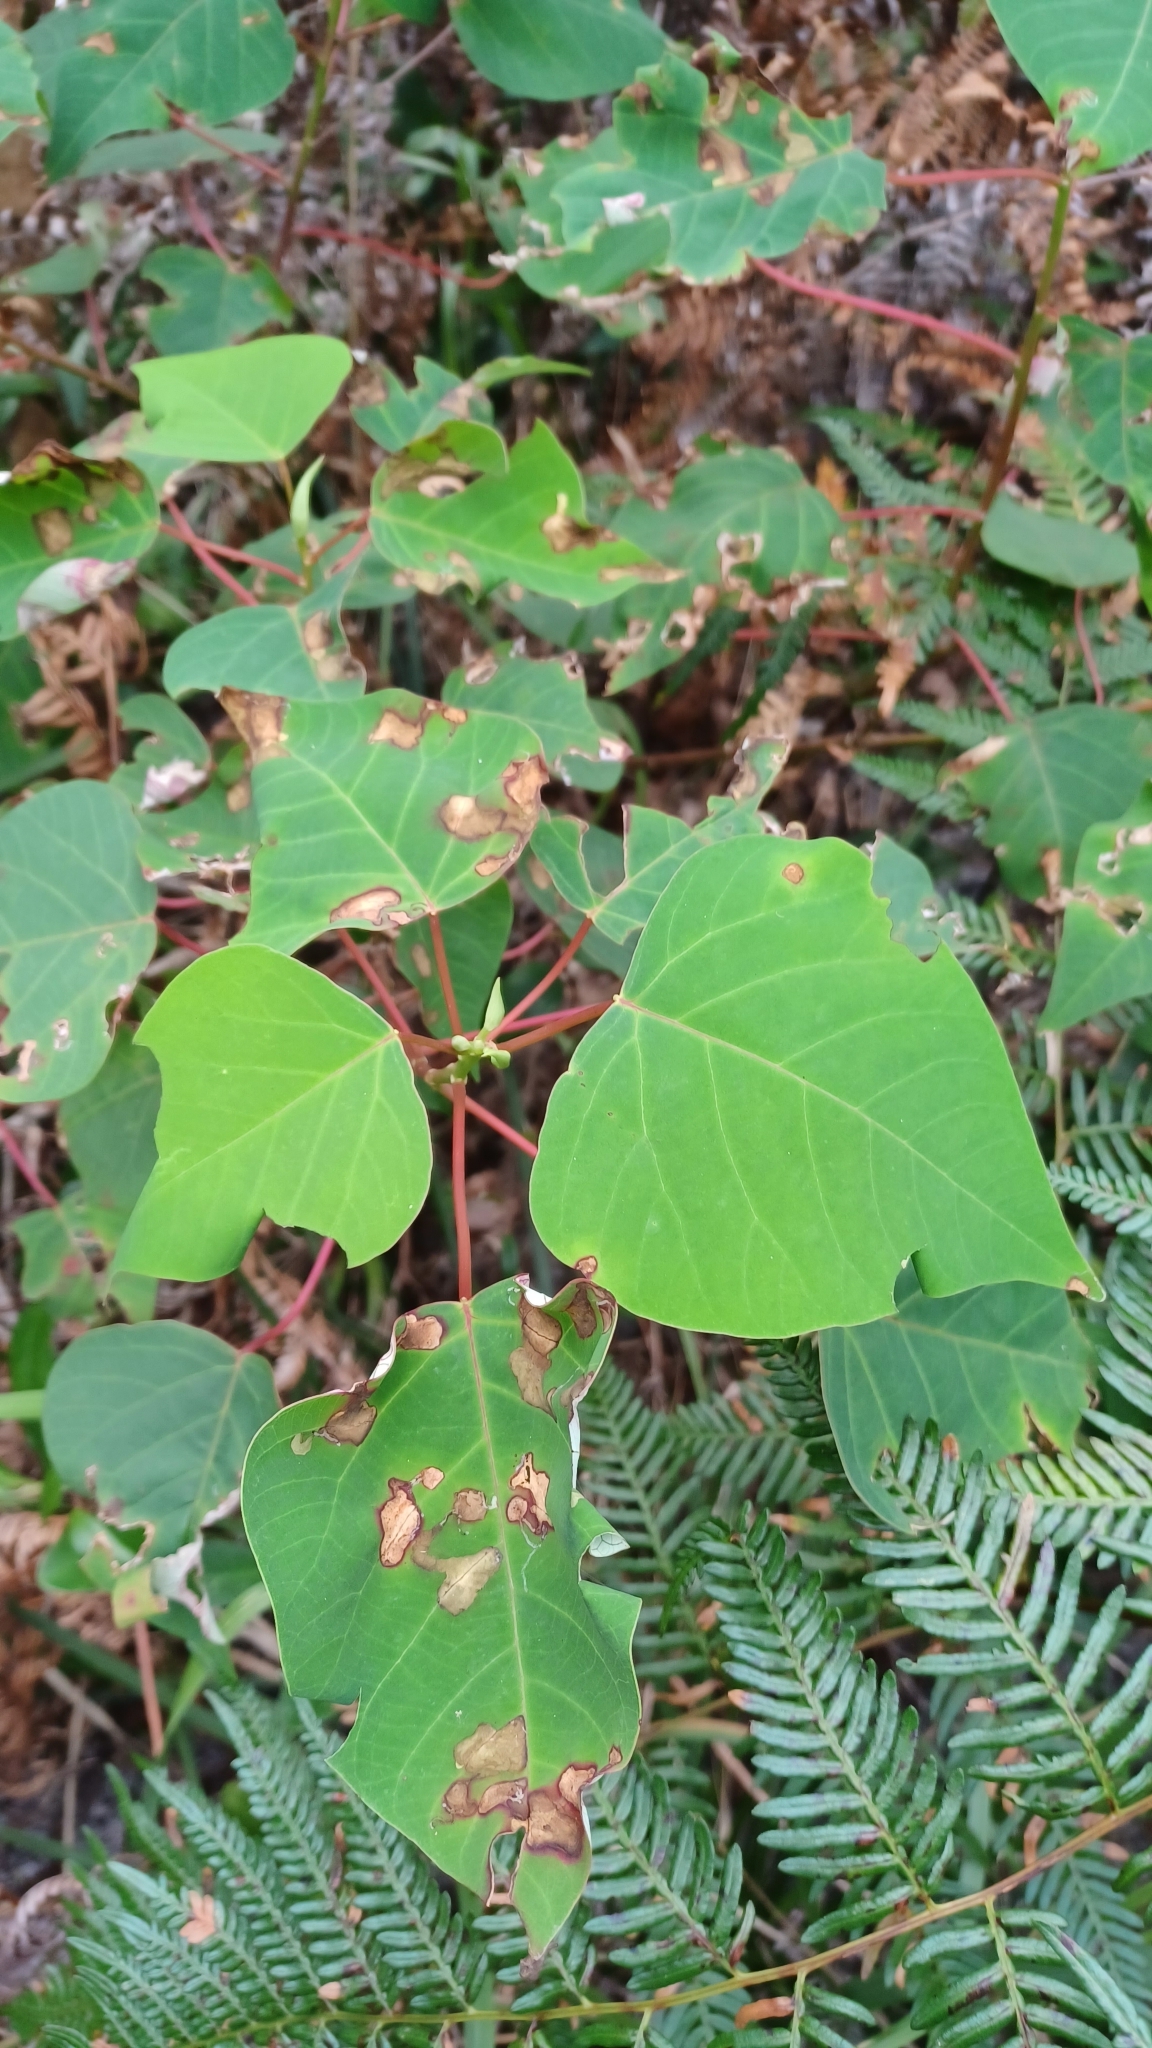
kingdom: Plantae
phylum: Tracheophyta
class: Magnoliopsida
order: Malpighiales
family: Euphorbiaceae
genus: Homalanthus
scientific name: Homalanthus populifolius
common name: Queensland poplar
